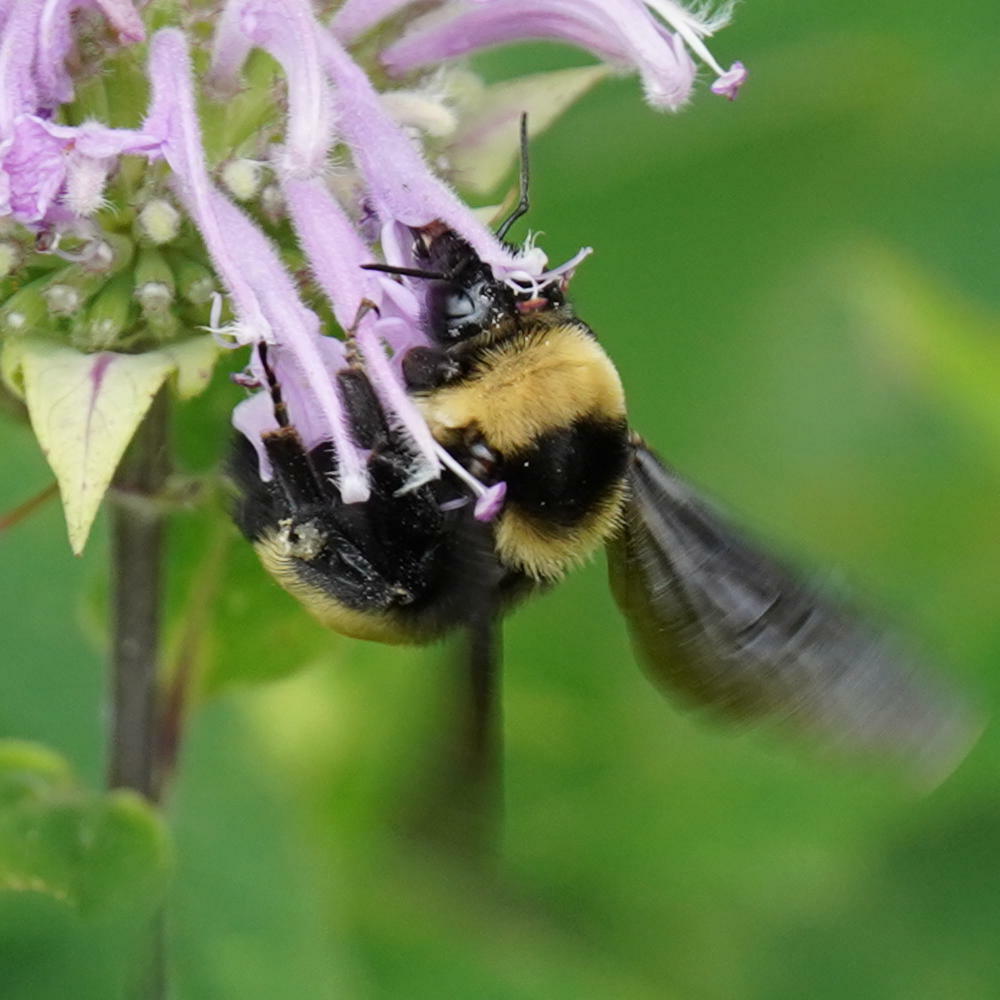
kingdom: Animalia
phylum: Arthropoda
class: Insecta
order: Hymenoptera
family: Apidae
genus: Bombus
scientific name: Bombus auricomus
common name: Black and gold bumble bee
